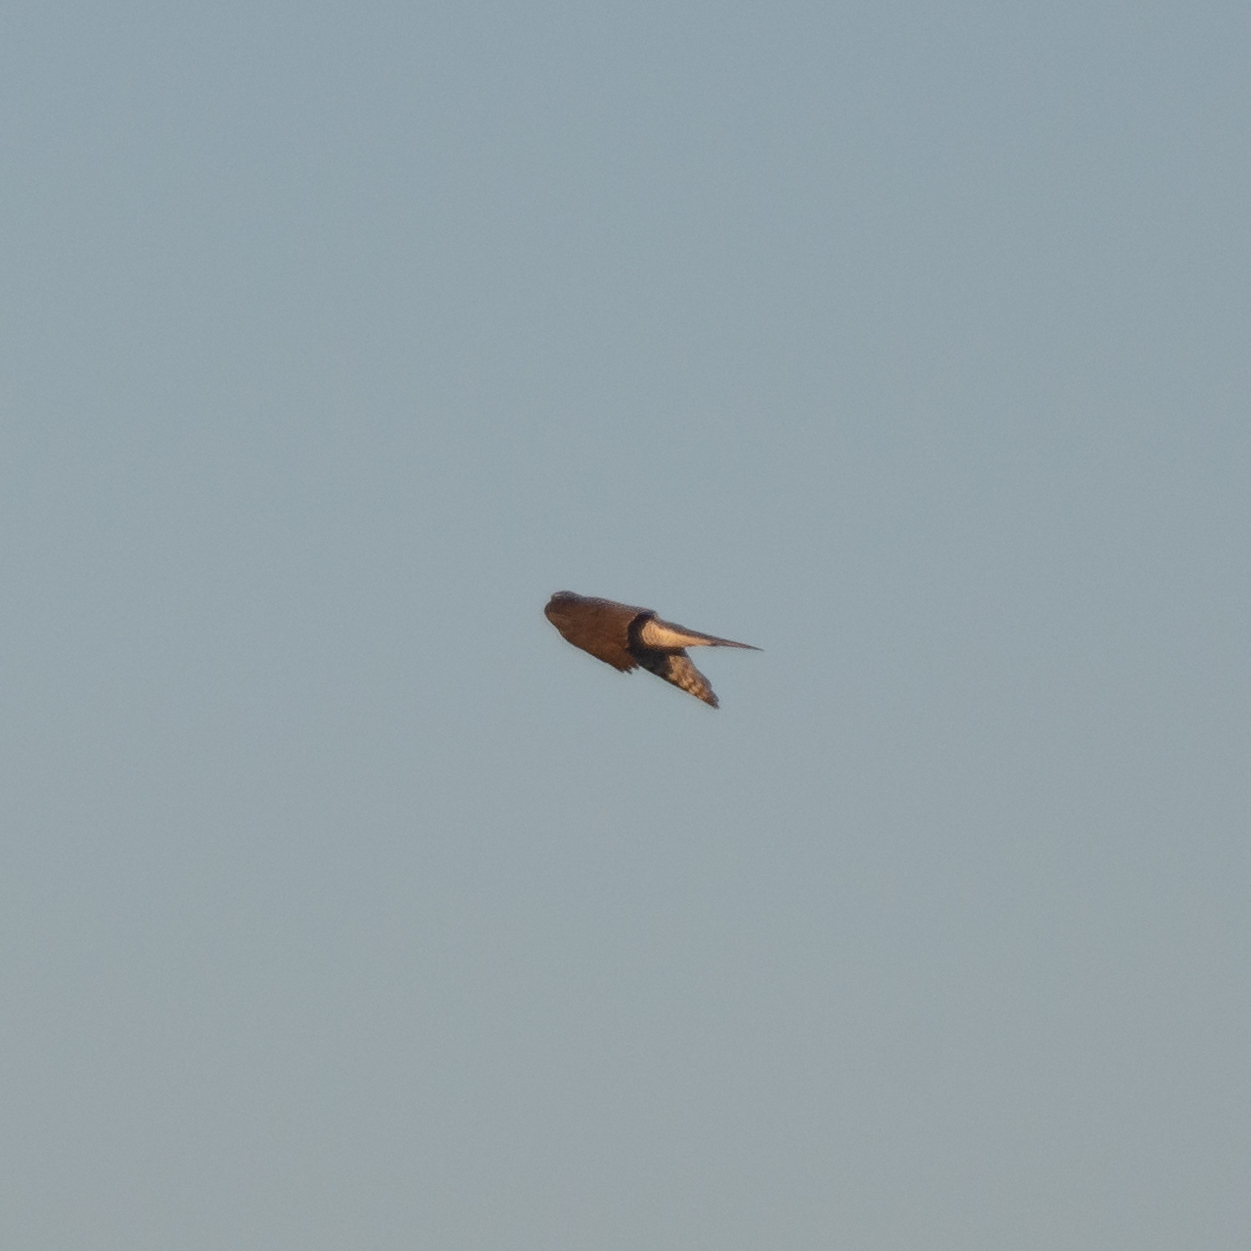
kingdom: Animalia
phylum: Chordata
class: Aves
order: Accipitriformes
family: Accipitridae
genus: Accipiter
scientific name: Accipiter gentilis
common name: Northern goshawk
